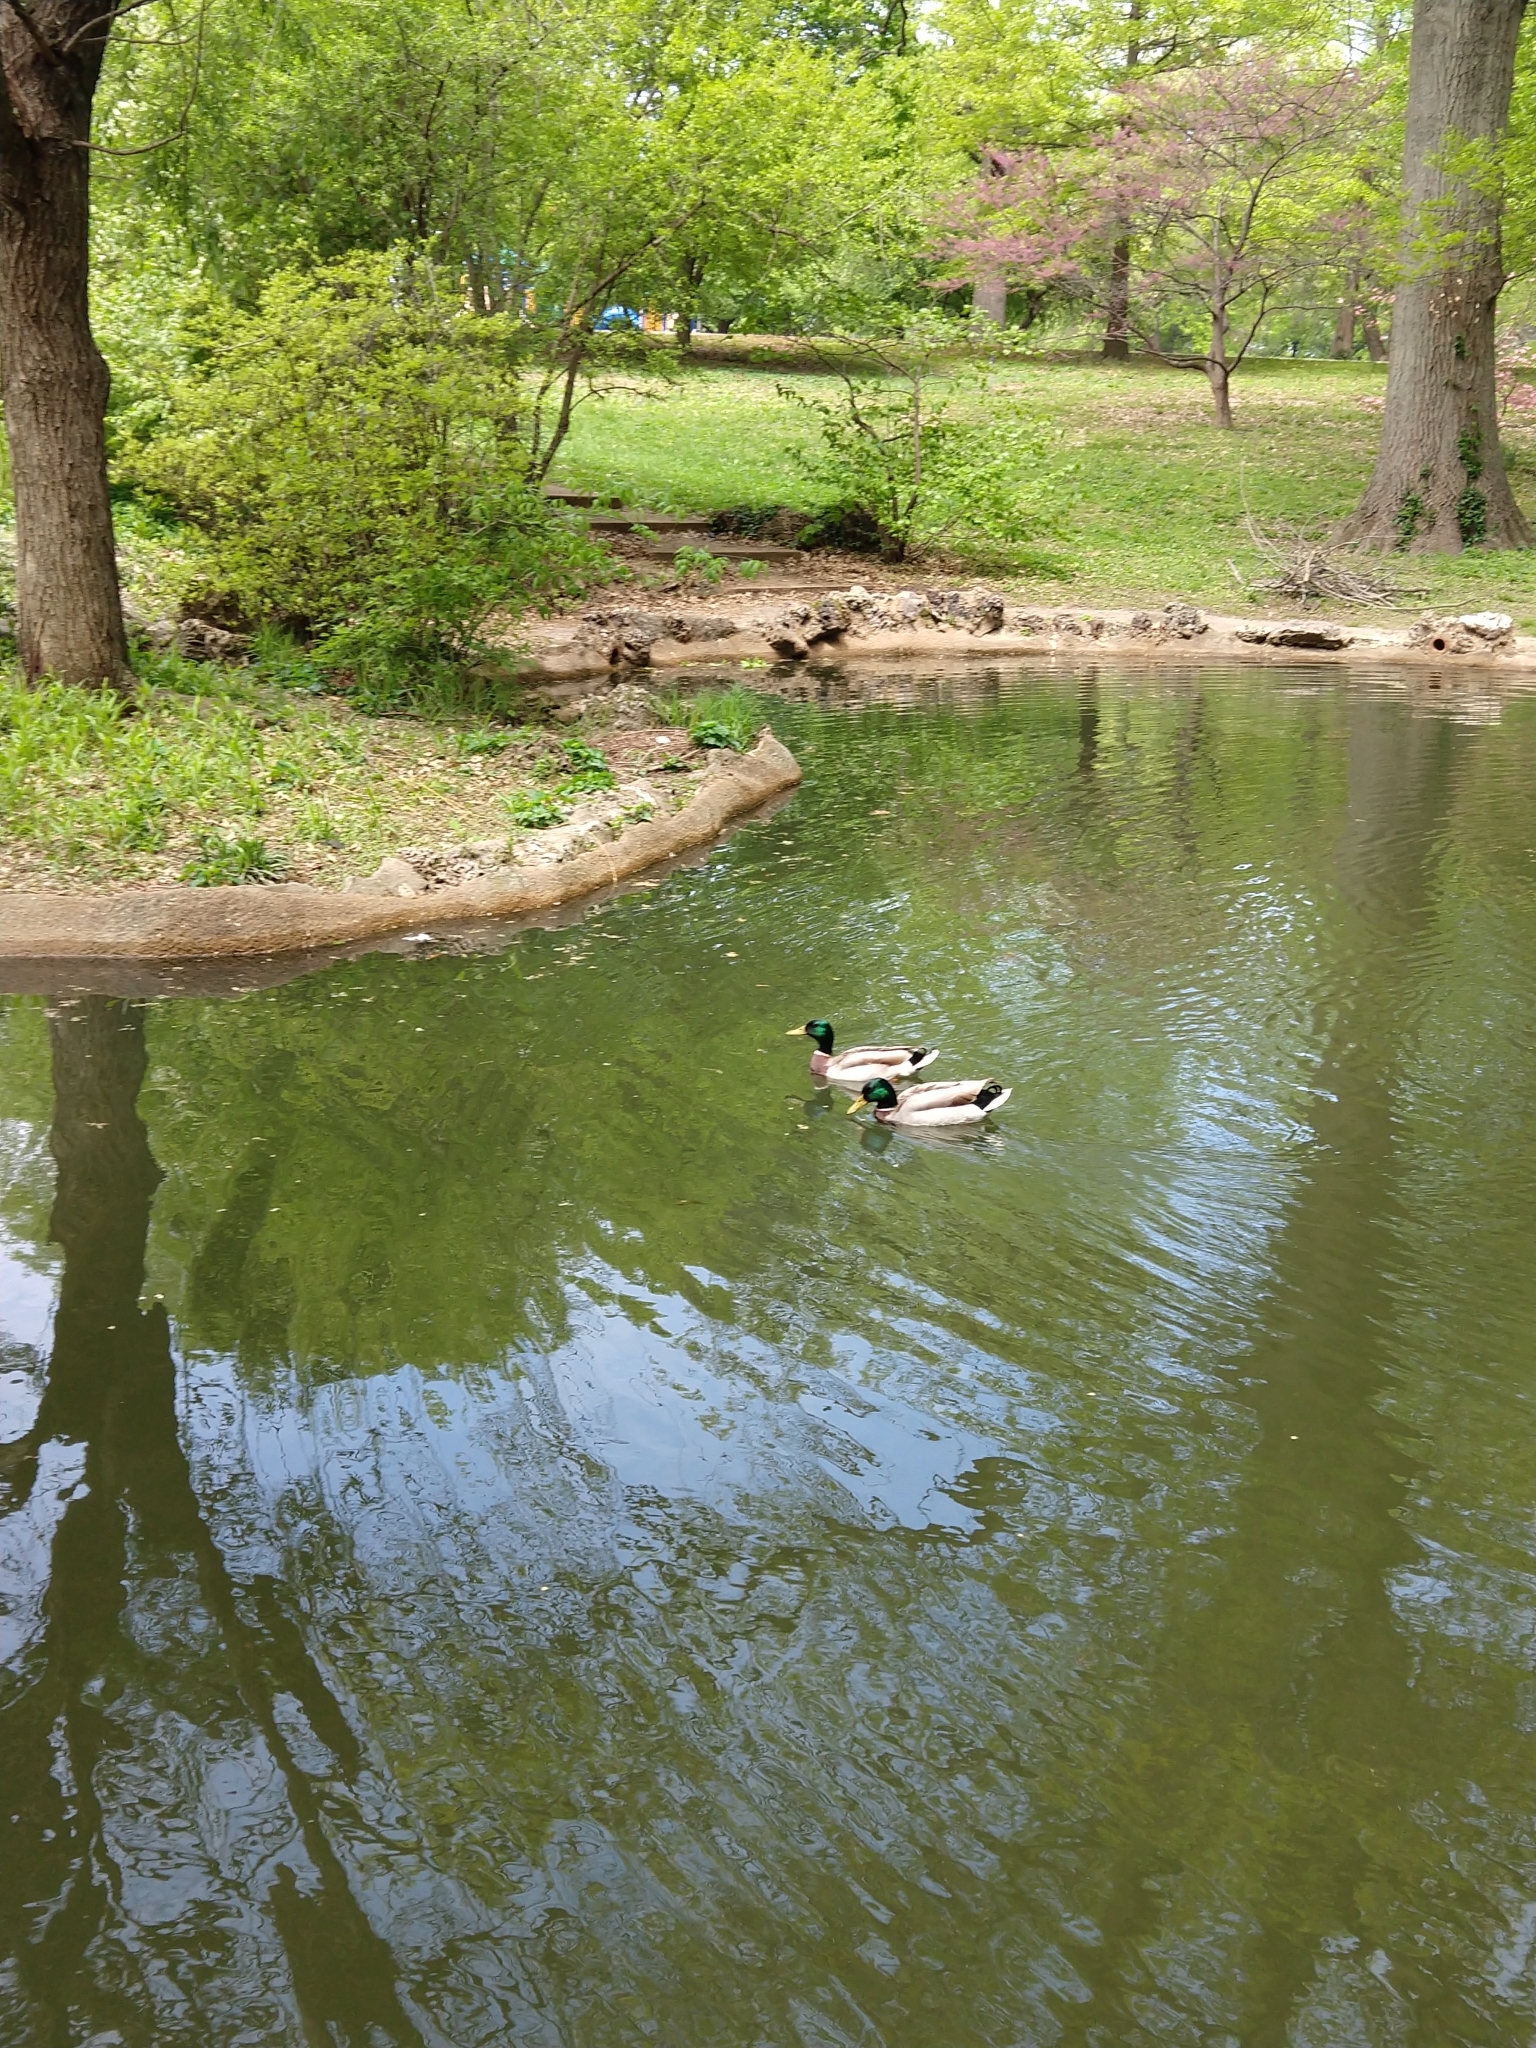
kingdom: Animalia
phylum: Chordata
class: Aves
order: Anseriformes
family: Anatidae
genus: Anas
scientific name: Anas platyrhynchos
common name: Mallard
